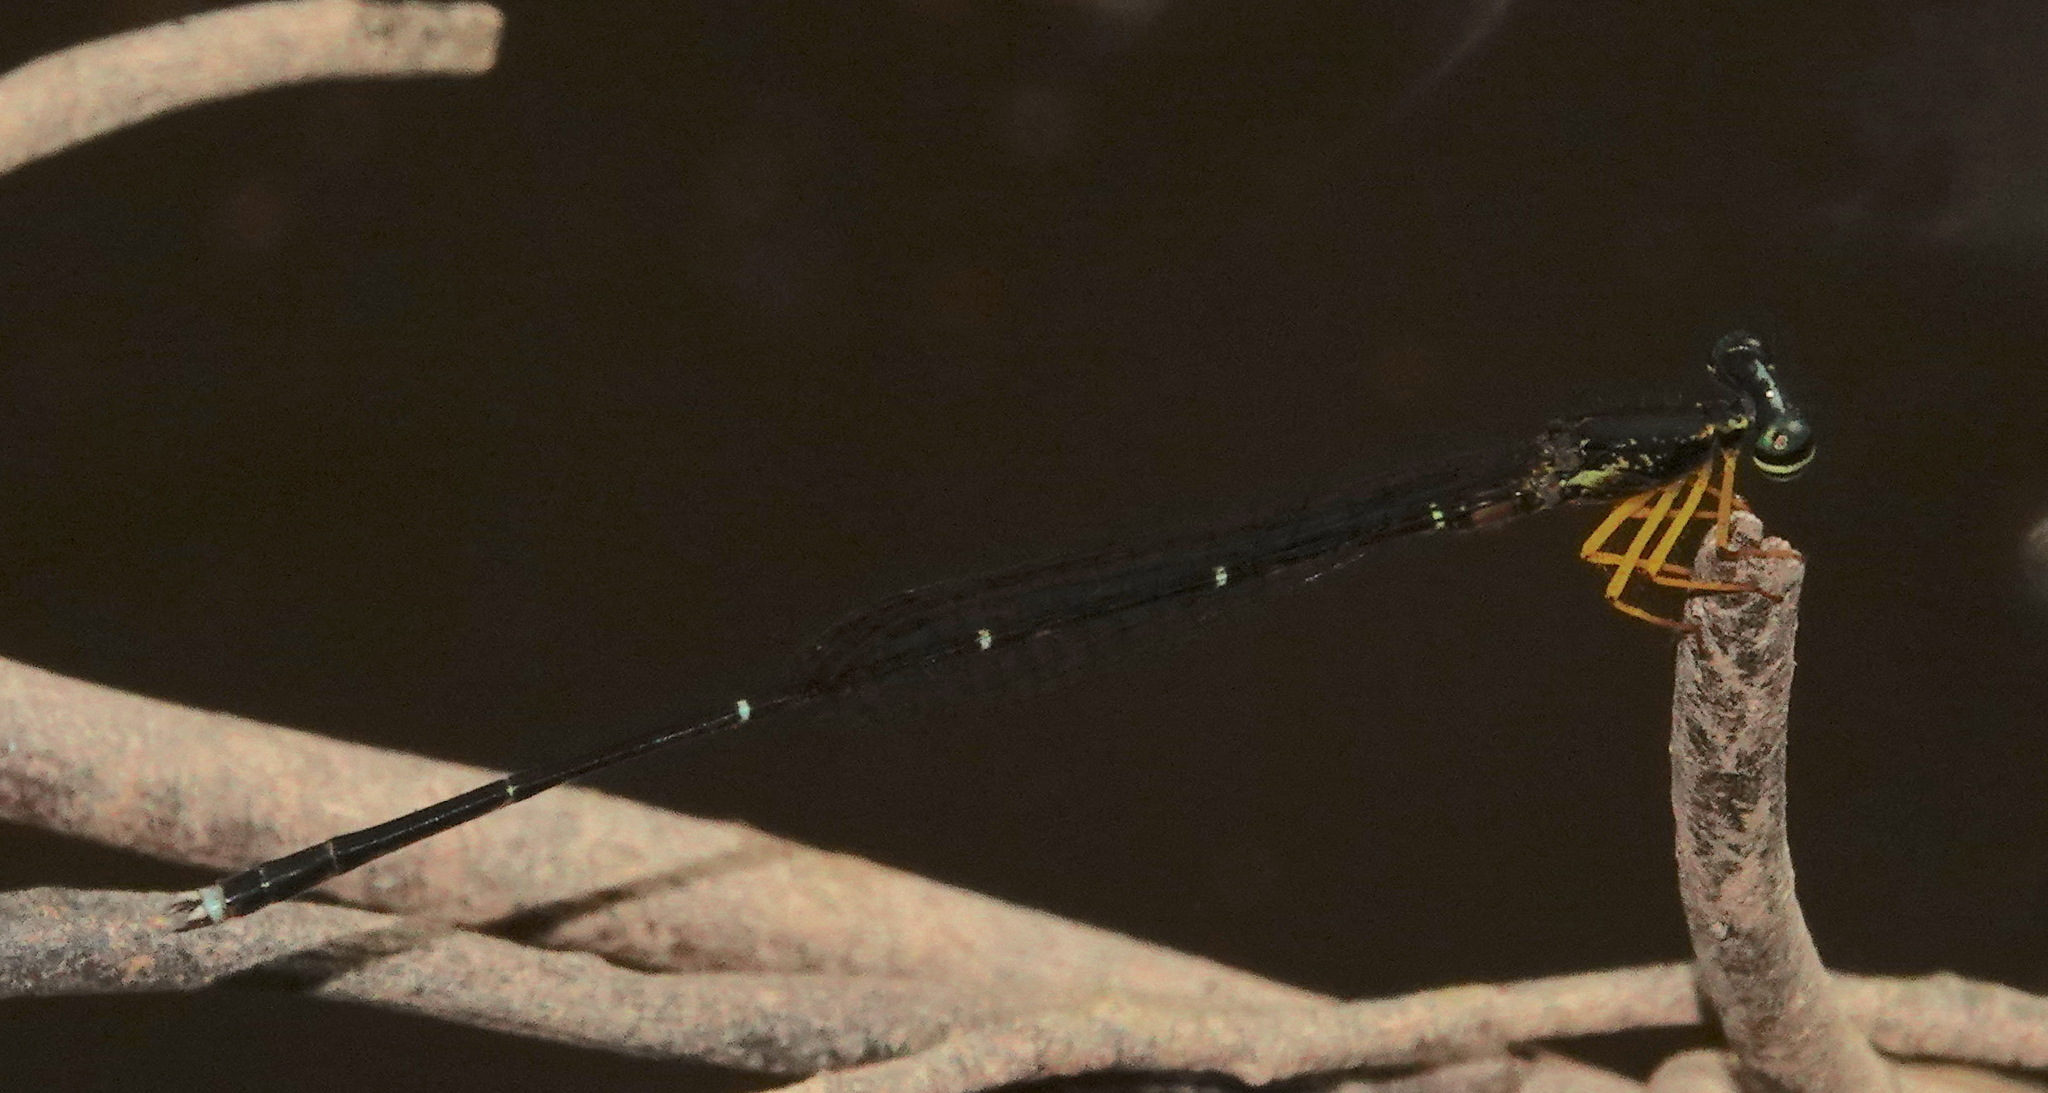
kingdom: Animalia
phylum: Arthropoda
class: Insecta
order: Odonata
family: Platycnemididae
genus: Copera
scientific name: Copera vittata
